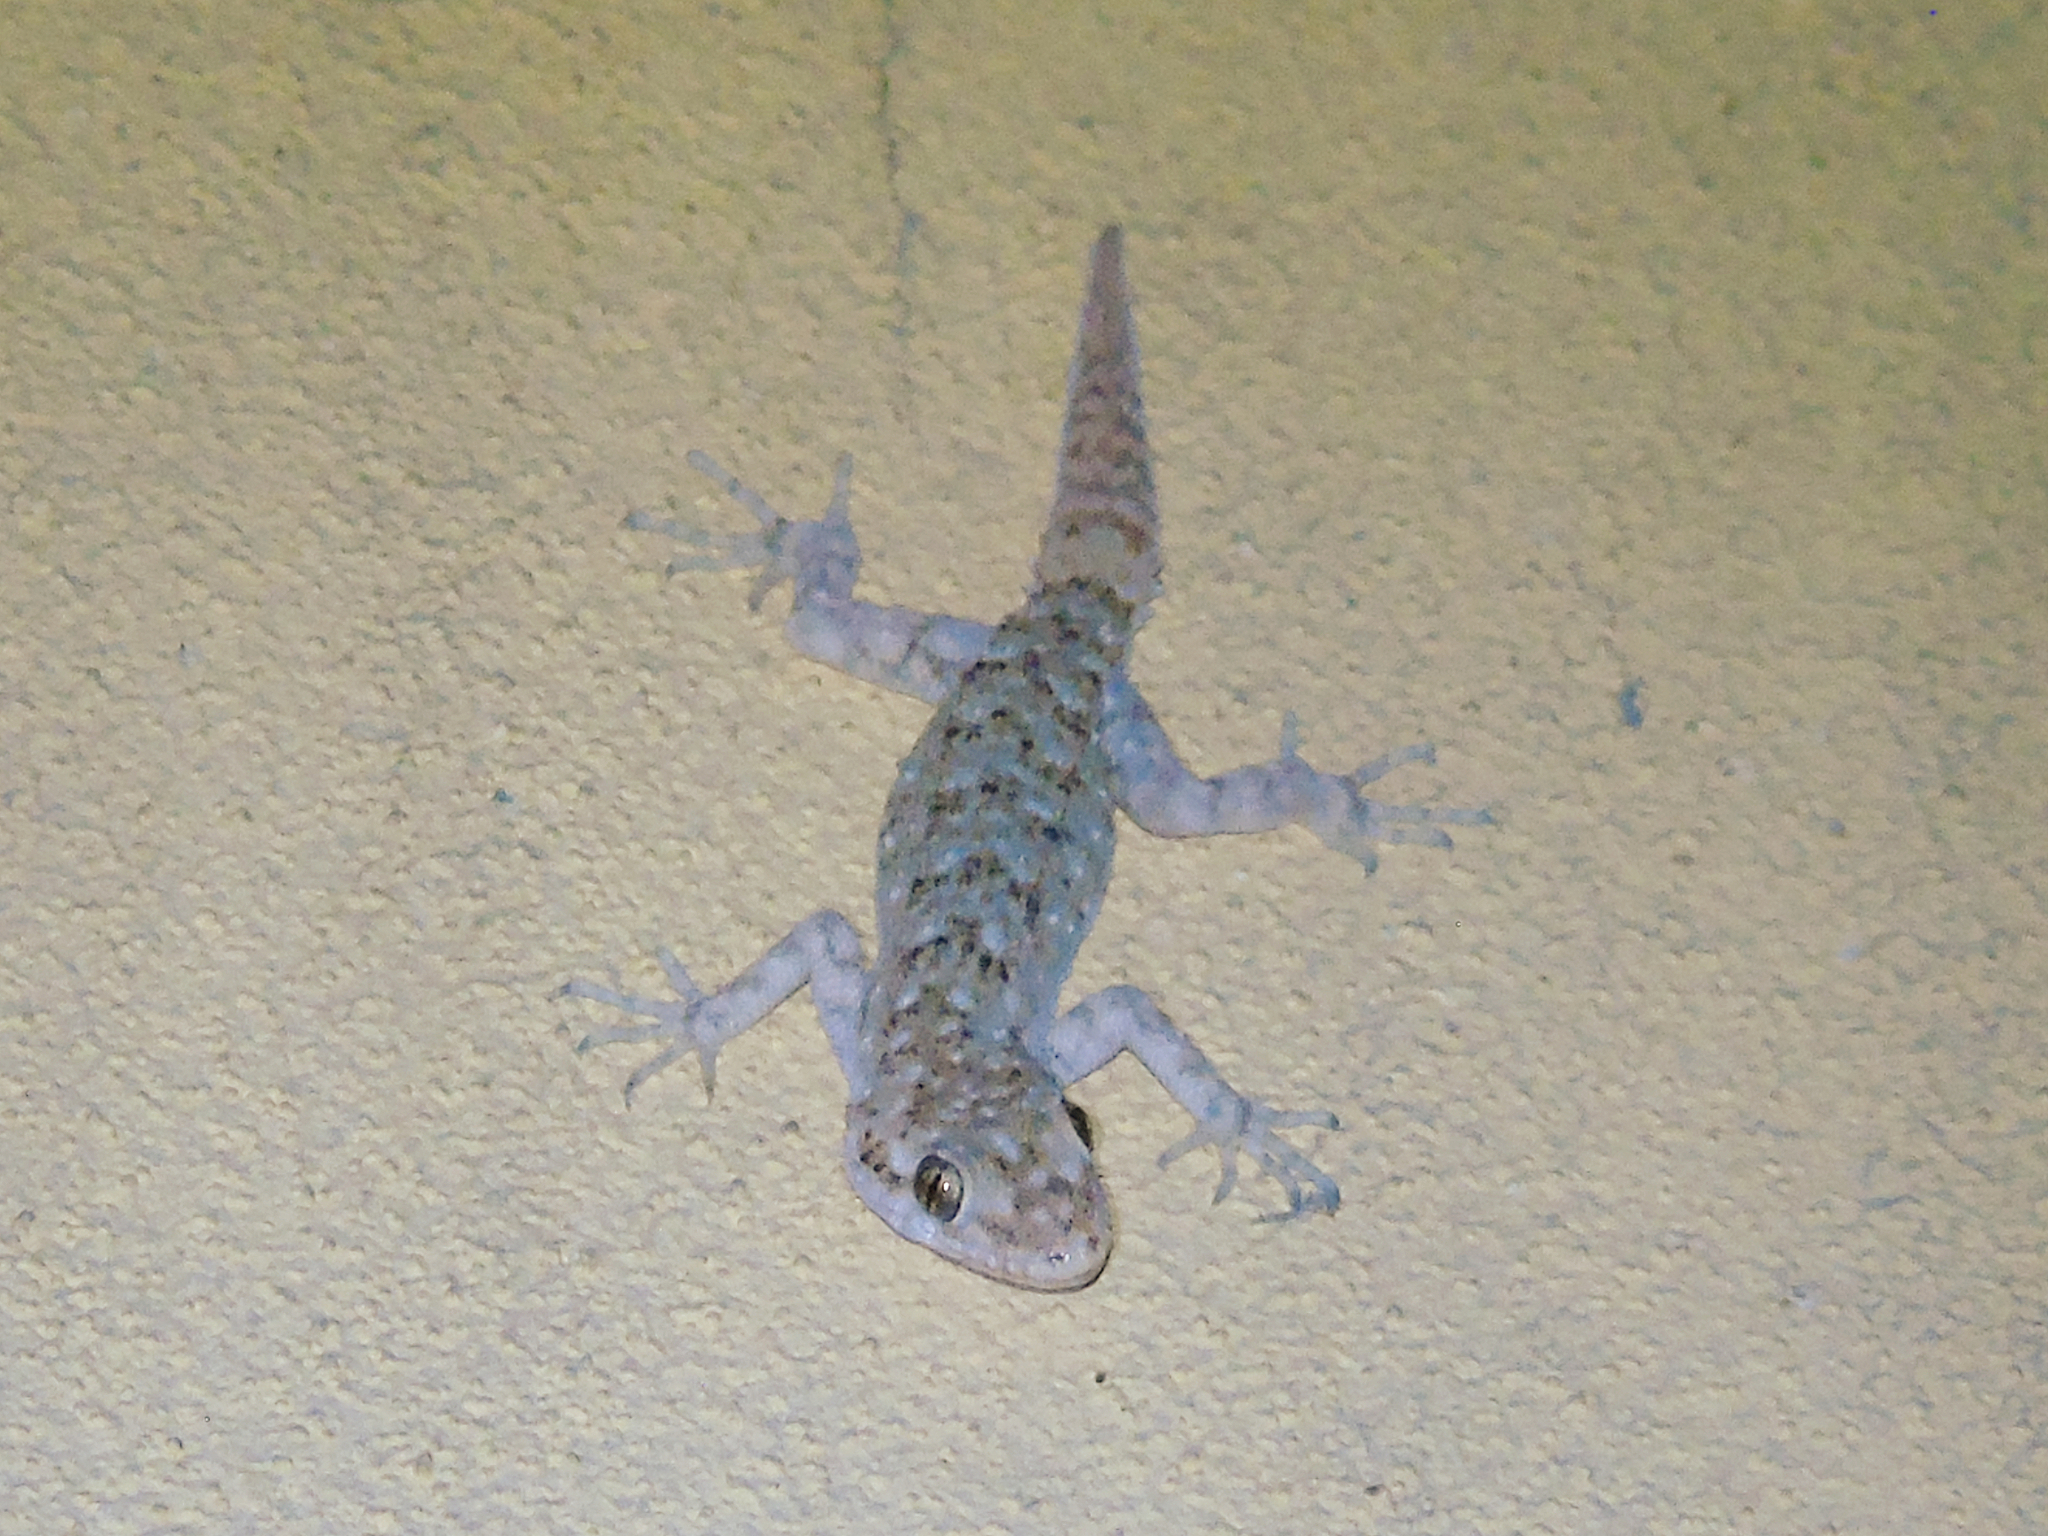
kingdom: Animalia
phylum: Chordata
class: Squamata
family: Gekkonidae
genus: Mediodactylus
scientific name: Mediodactylus kotschyi
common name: Kotschy's gecko
